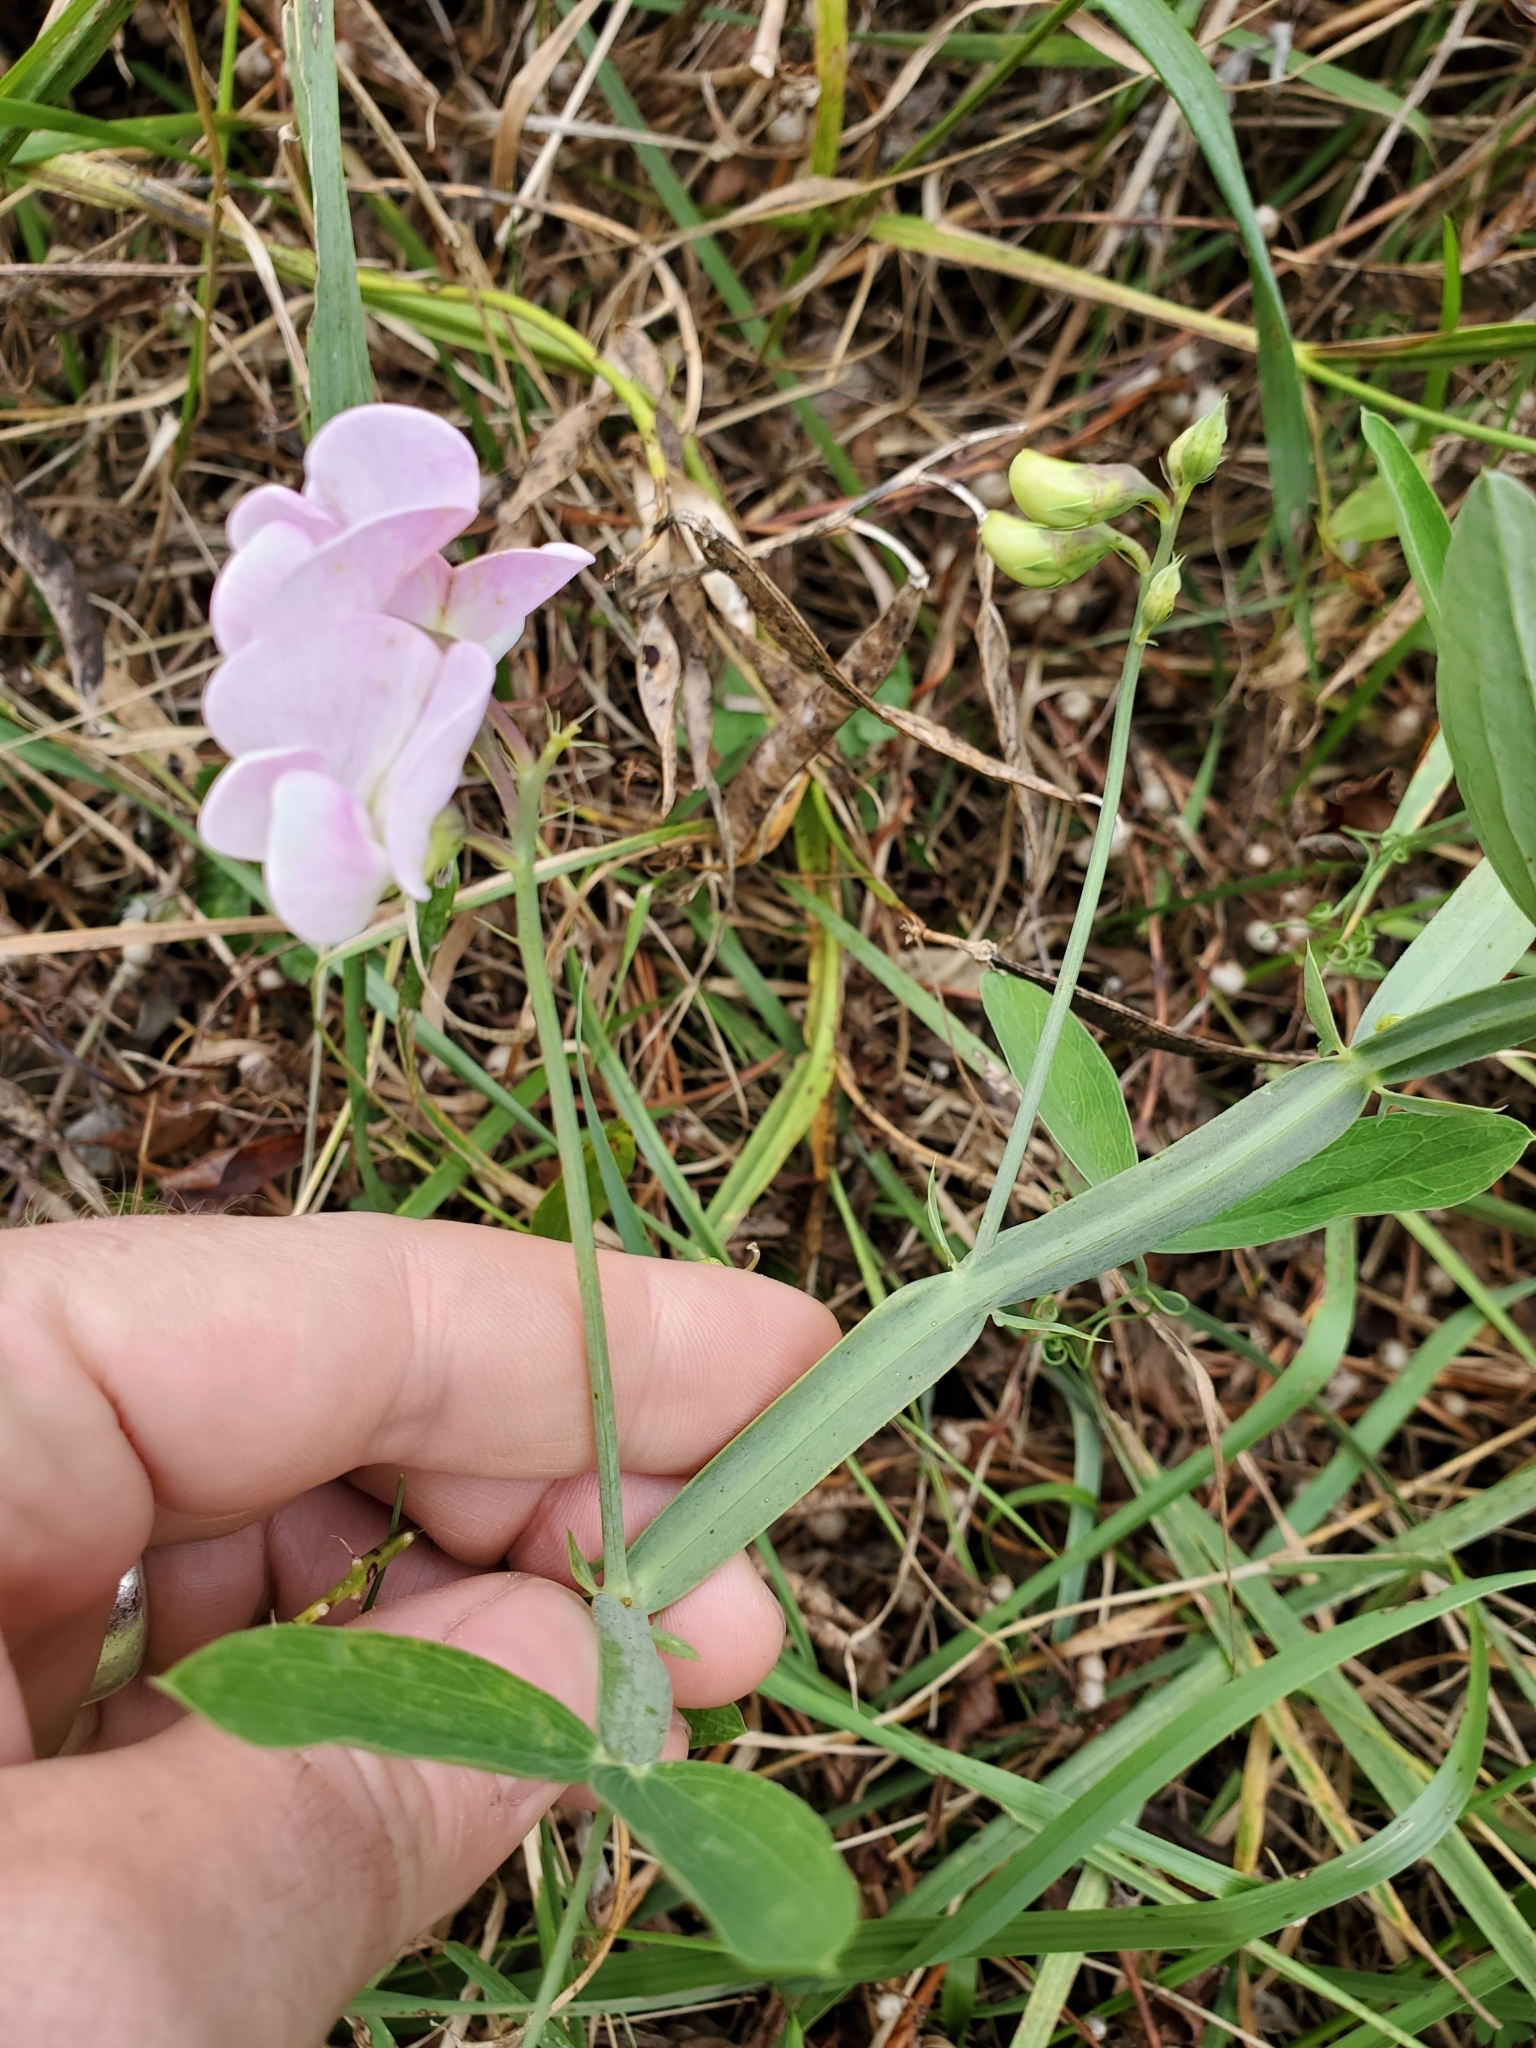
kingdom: Plantae
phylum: Tracheophyta
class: Magnoliopsida
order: Fabales
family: Fabaceae
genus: Lathyrus
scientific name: Lathyrus latifolius
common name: Perennial pea
